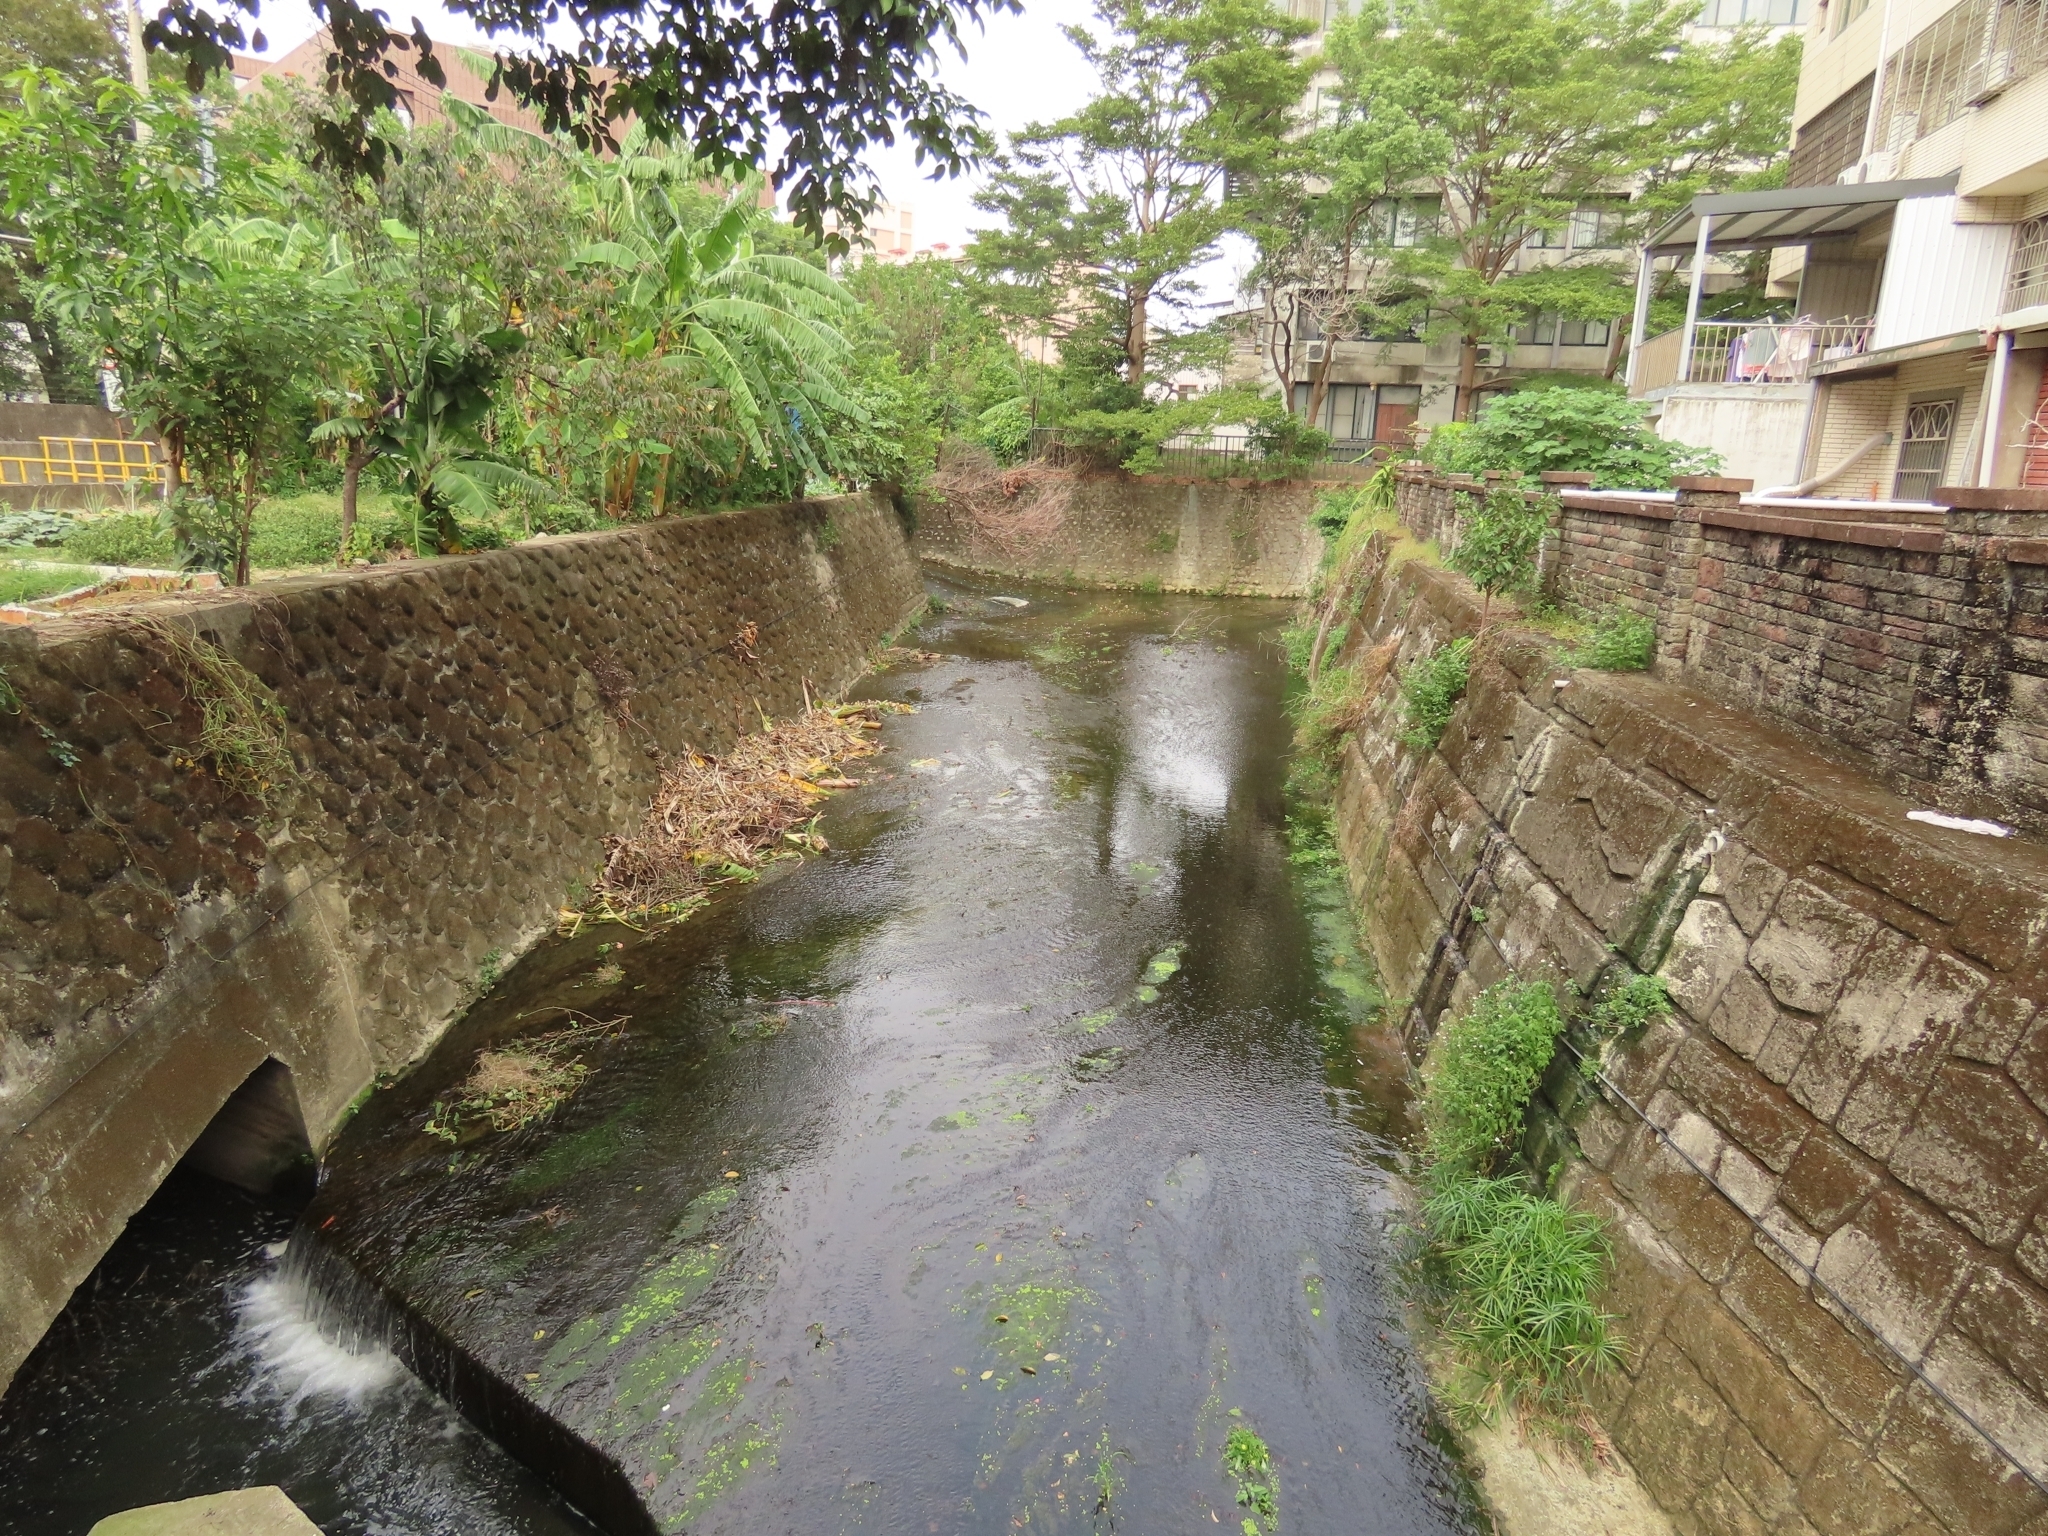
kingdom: Plantae
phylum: Tracheophyta
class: Magnoliopsida
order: Asterales
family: Asteraceae
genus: Ixeris
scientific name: Ixeris chinensis
